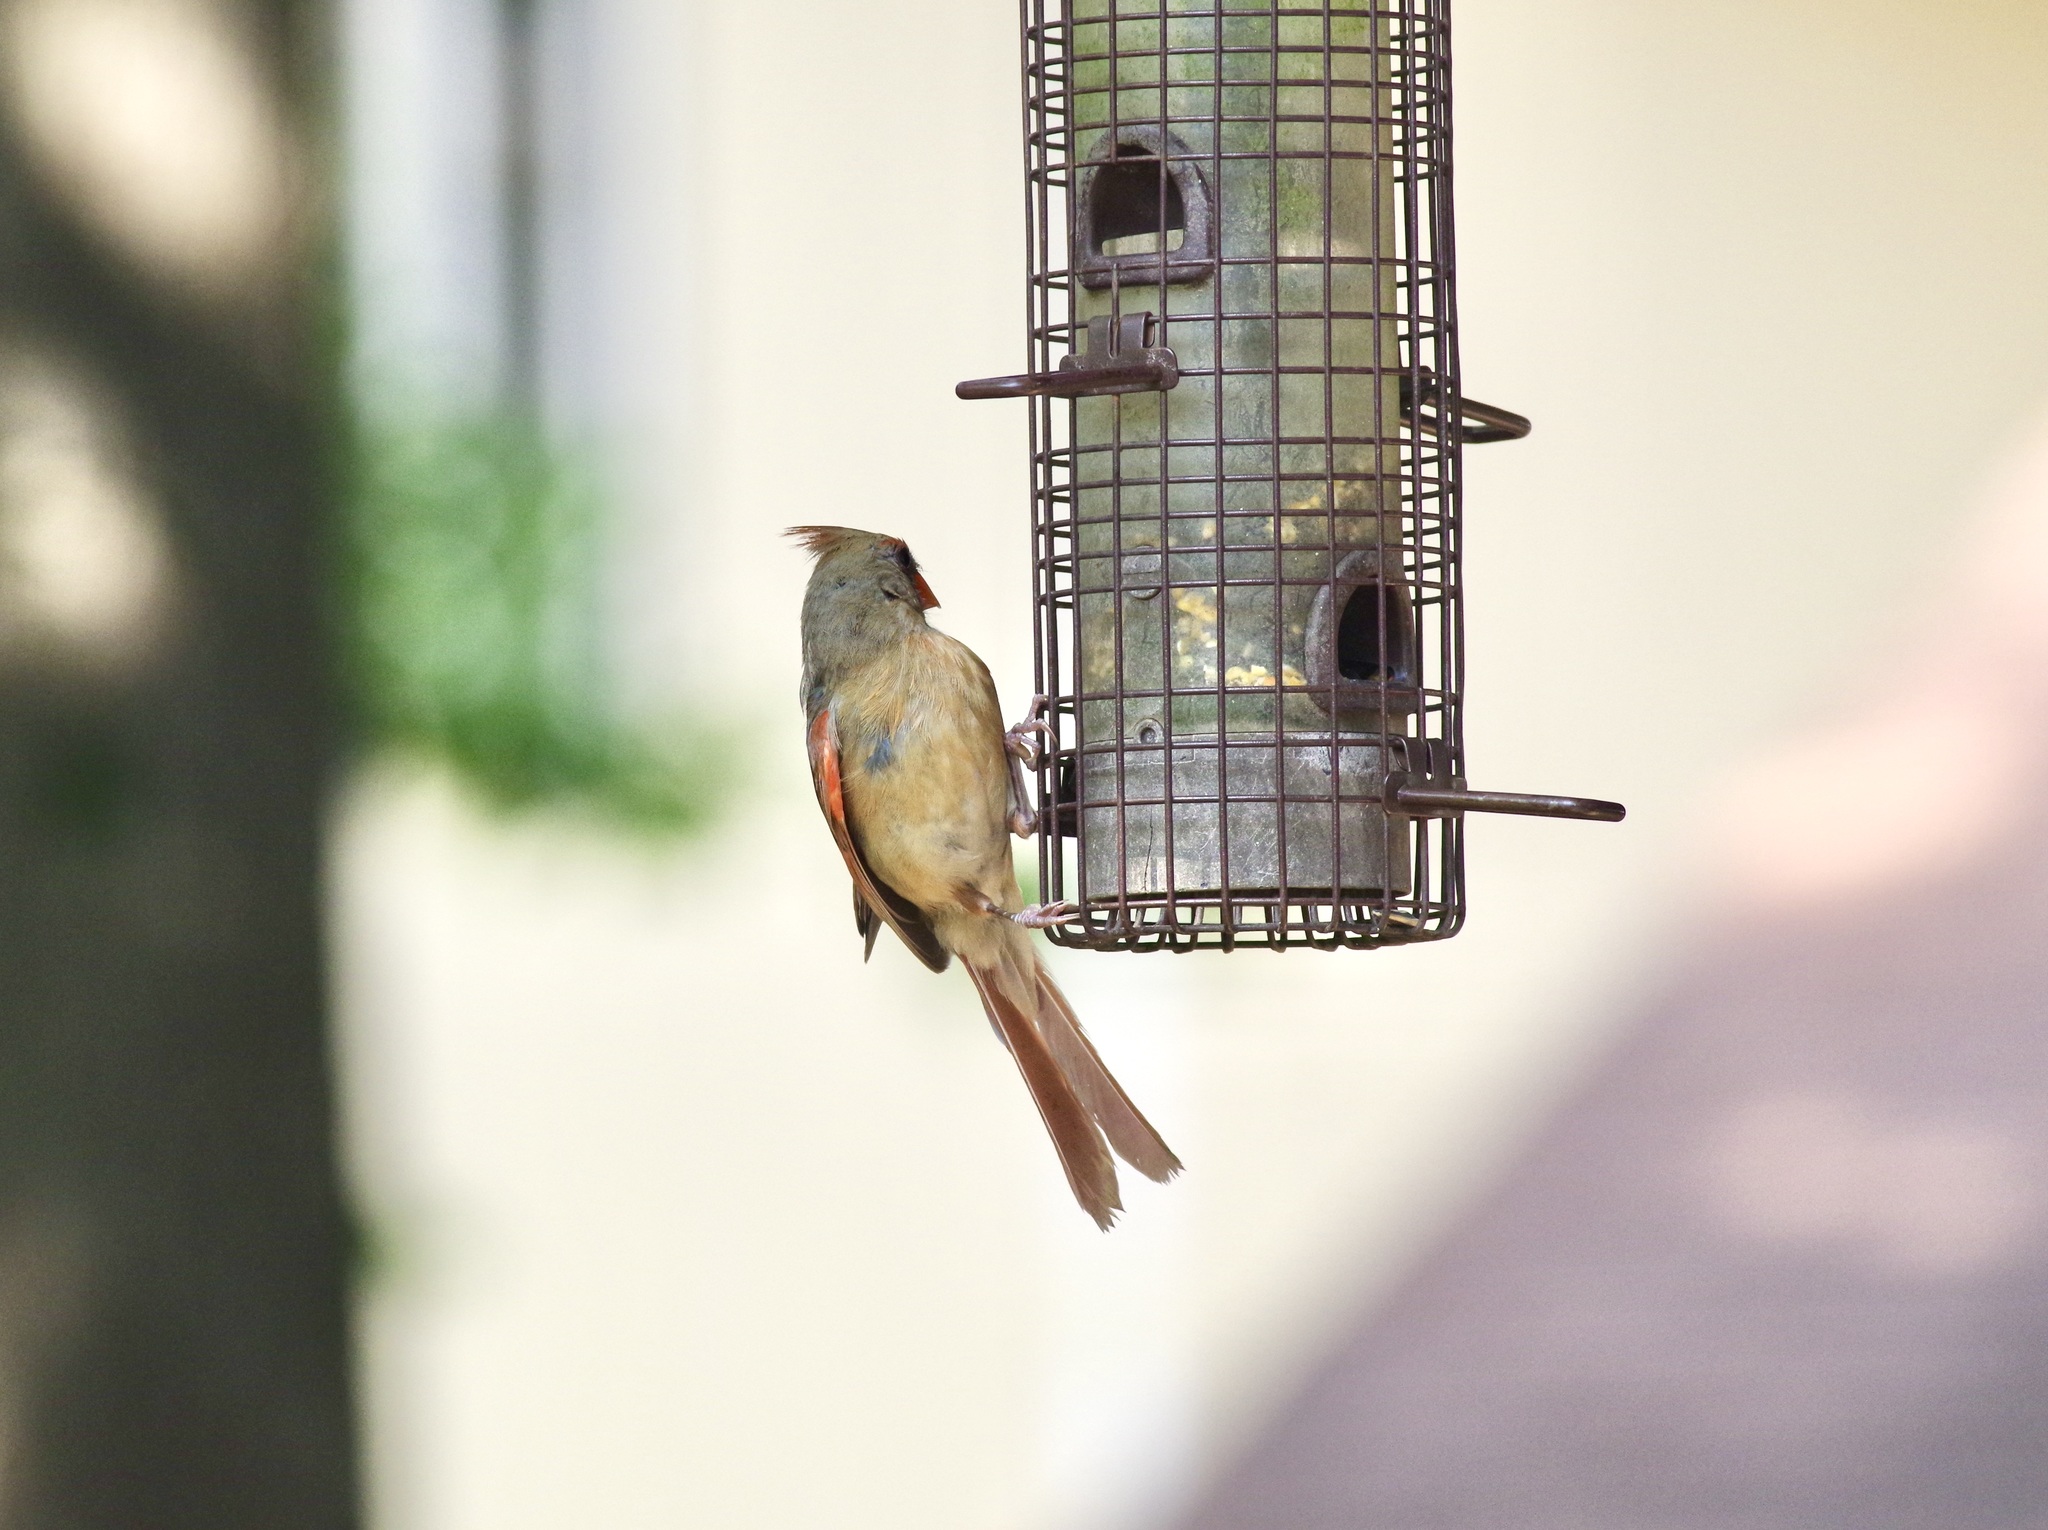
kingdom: Animalia
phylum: Chordata
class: Aves
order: Passeriformes
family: Cardinalidae
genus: Cardinalis
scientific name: Cardinalis cardinalis
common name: Northern cardinal
